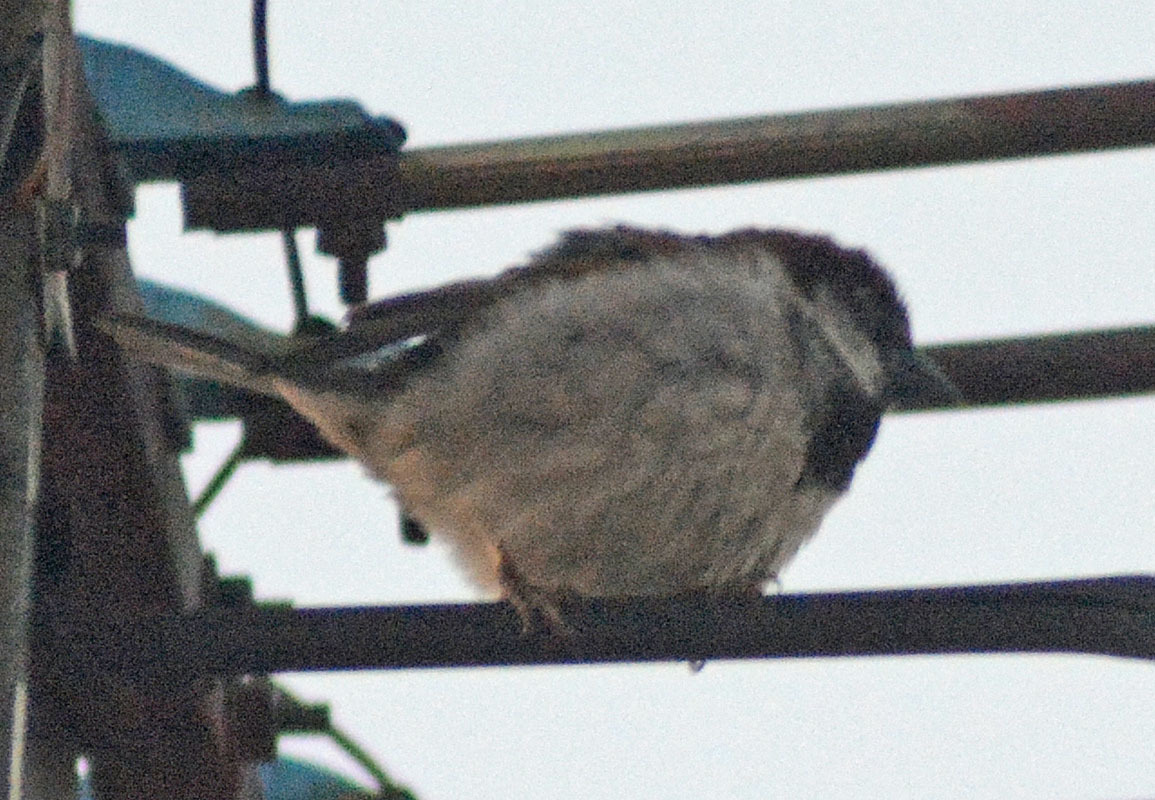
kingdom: Animalia
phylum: Chordata
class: Aves
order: Passeriformes
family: Passeridae
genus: Passer
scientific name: Passer domesticus
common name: House sparrow
